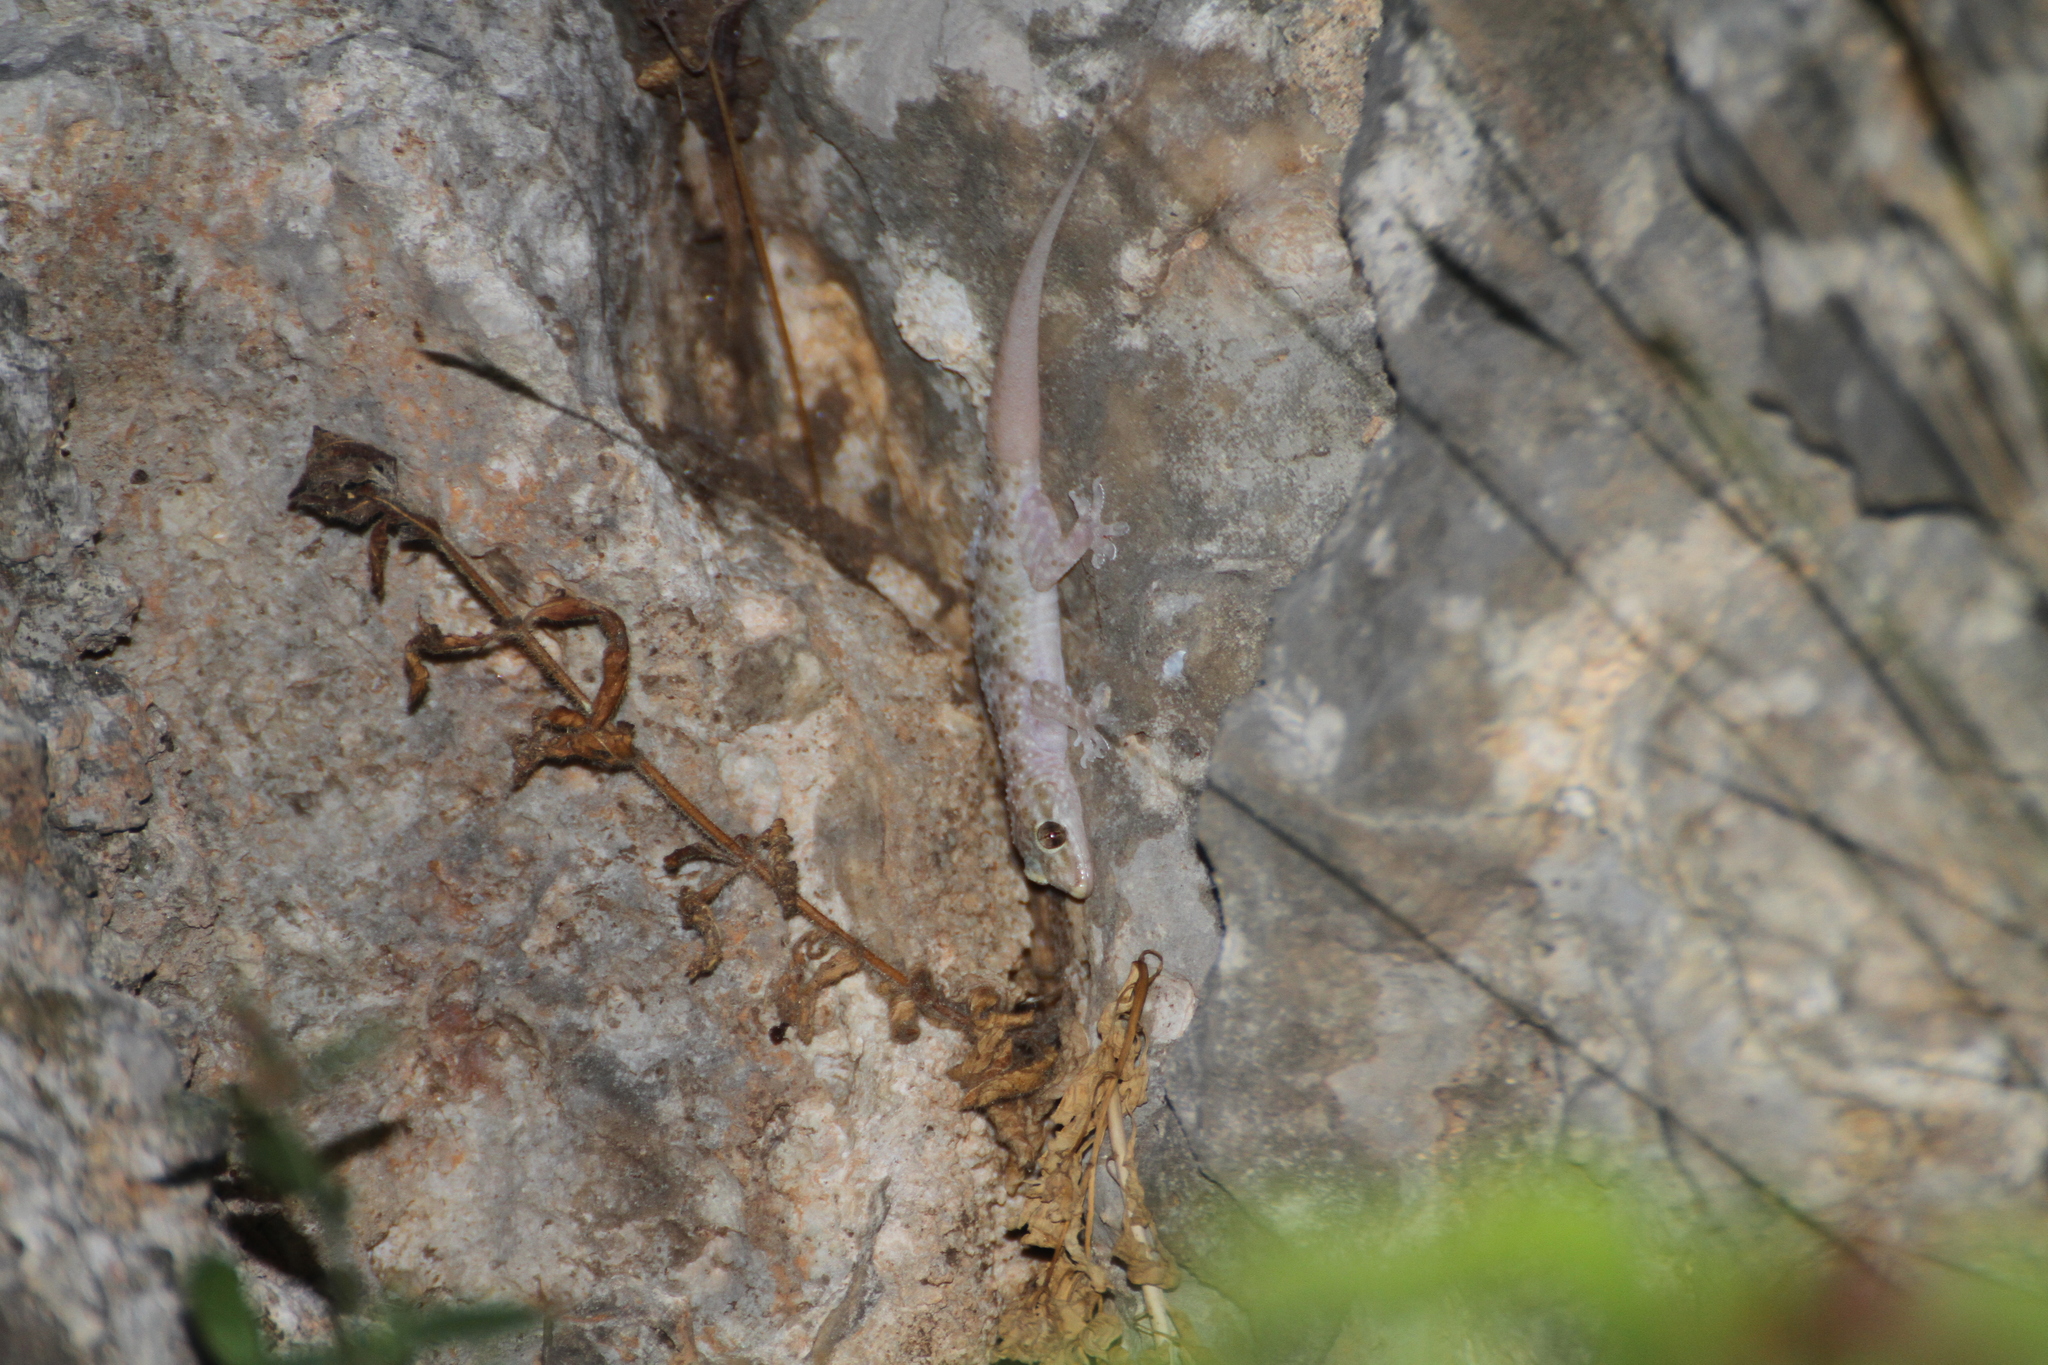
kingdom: Animalia
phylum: Chordata
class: Squamata
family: Gekkonidae
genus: Hemidactylus
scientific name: Hemidactylus turcicus
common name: Turkish gecko
